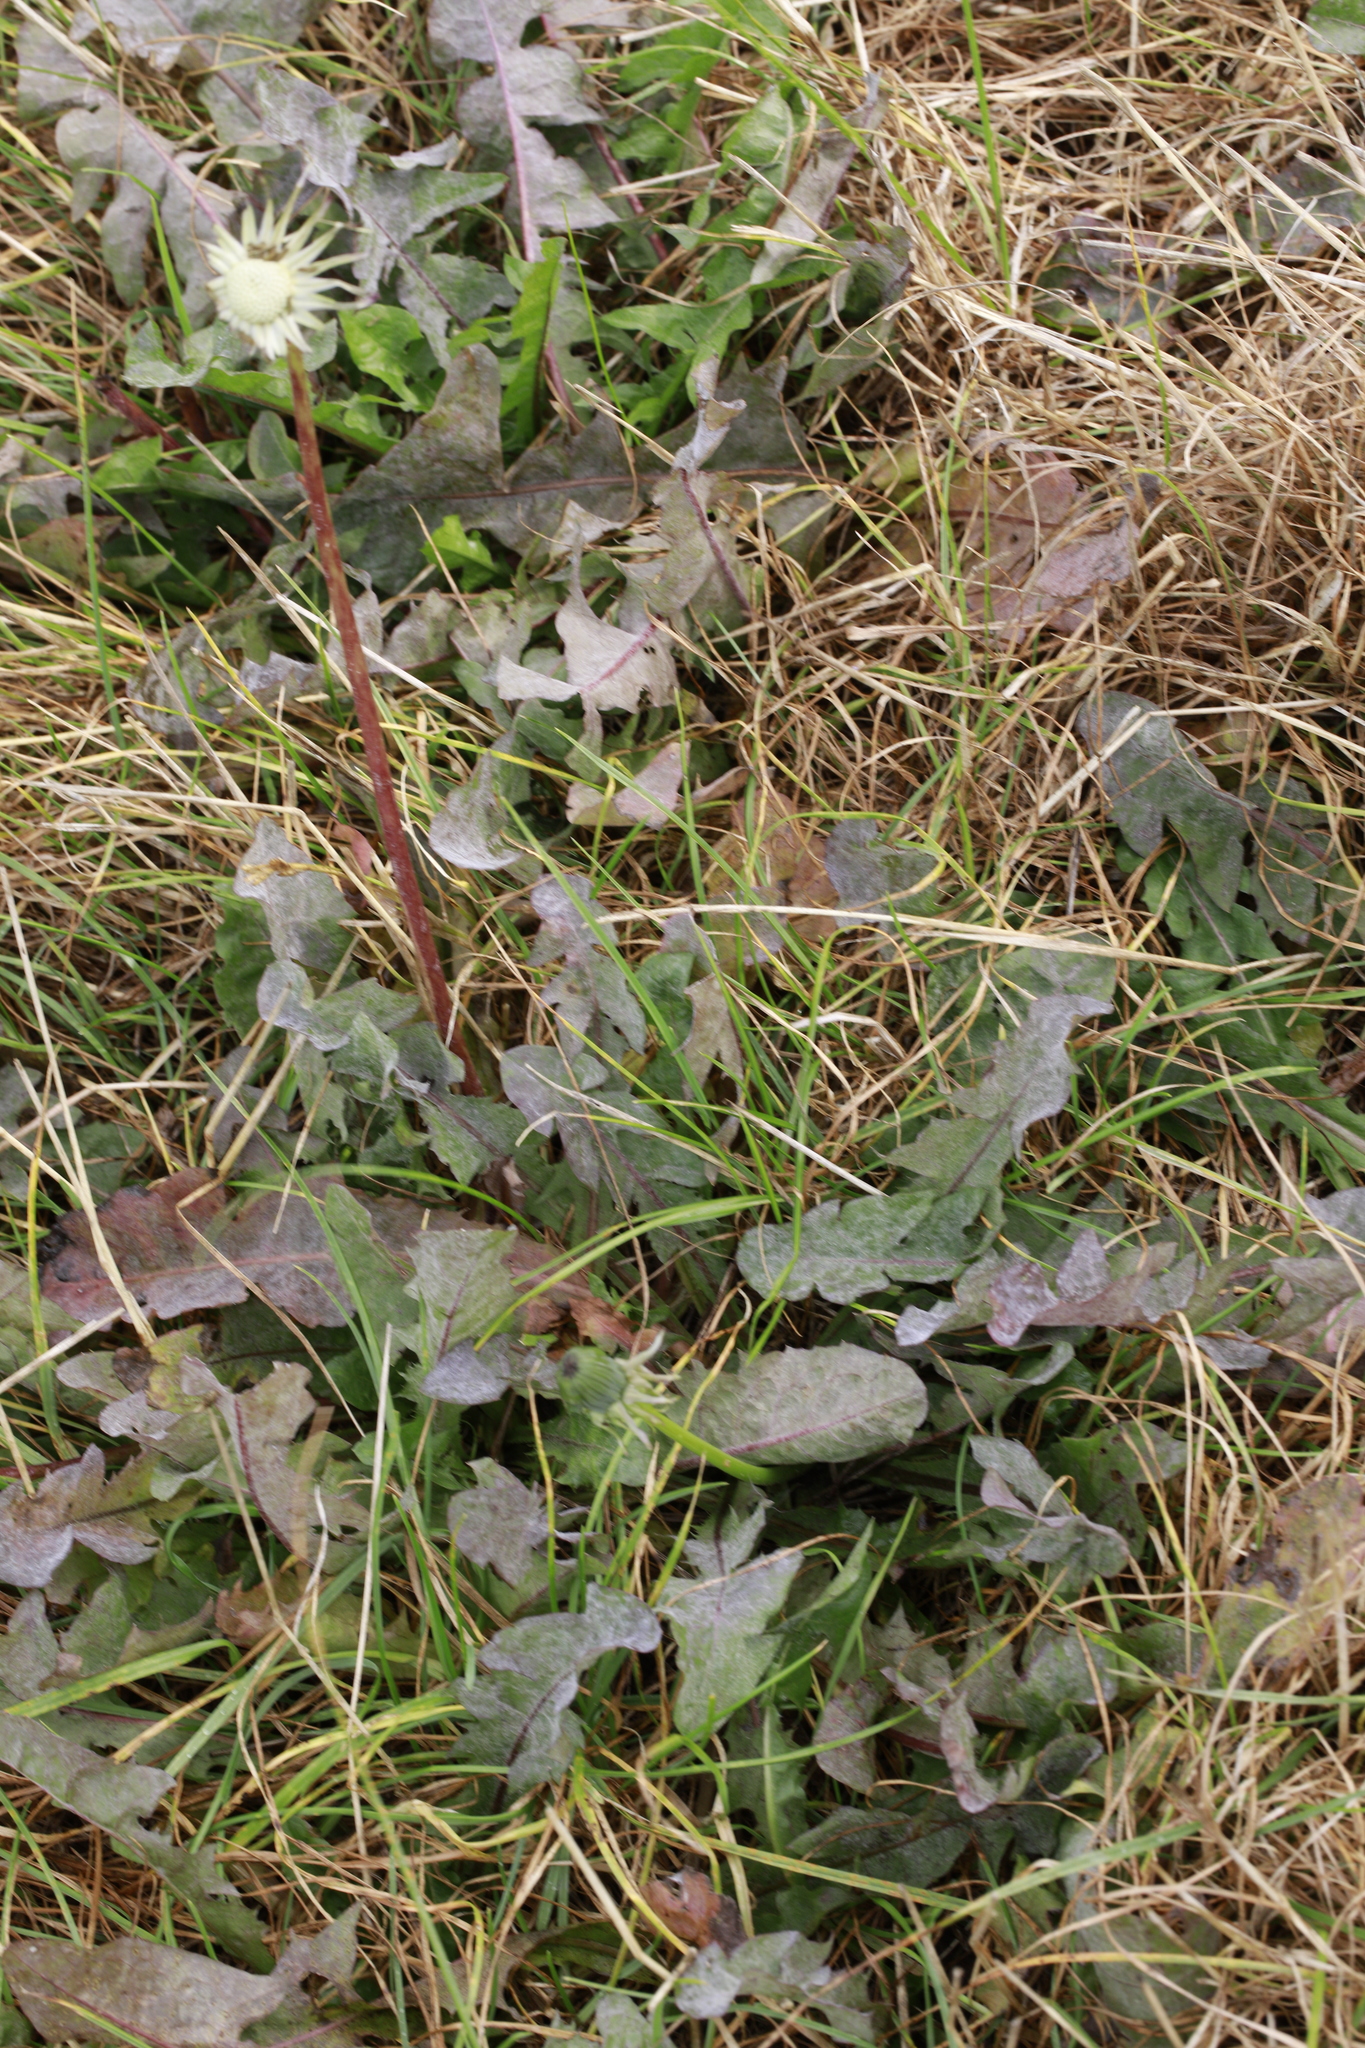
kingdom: Plantae
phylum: Tracheophyta
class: Magnoliopsida
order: Asterales
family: Asteraceae
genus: Taraxacum
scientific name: Taraxacum officinale
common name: Common dandelion
